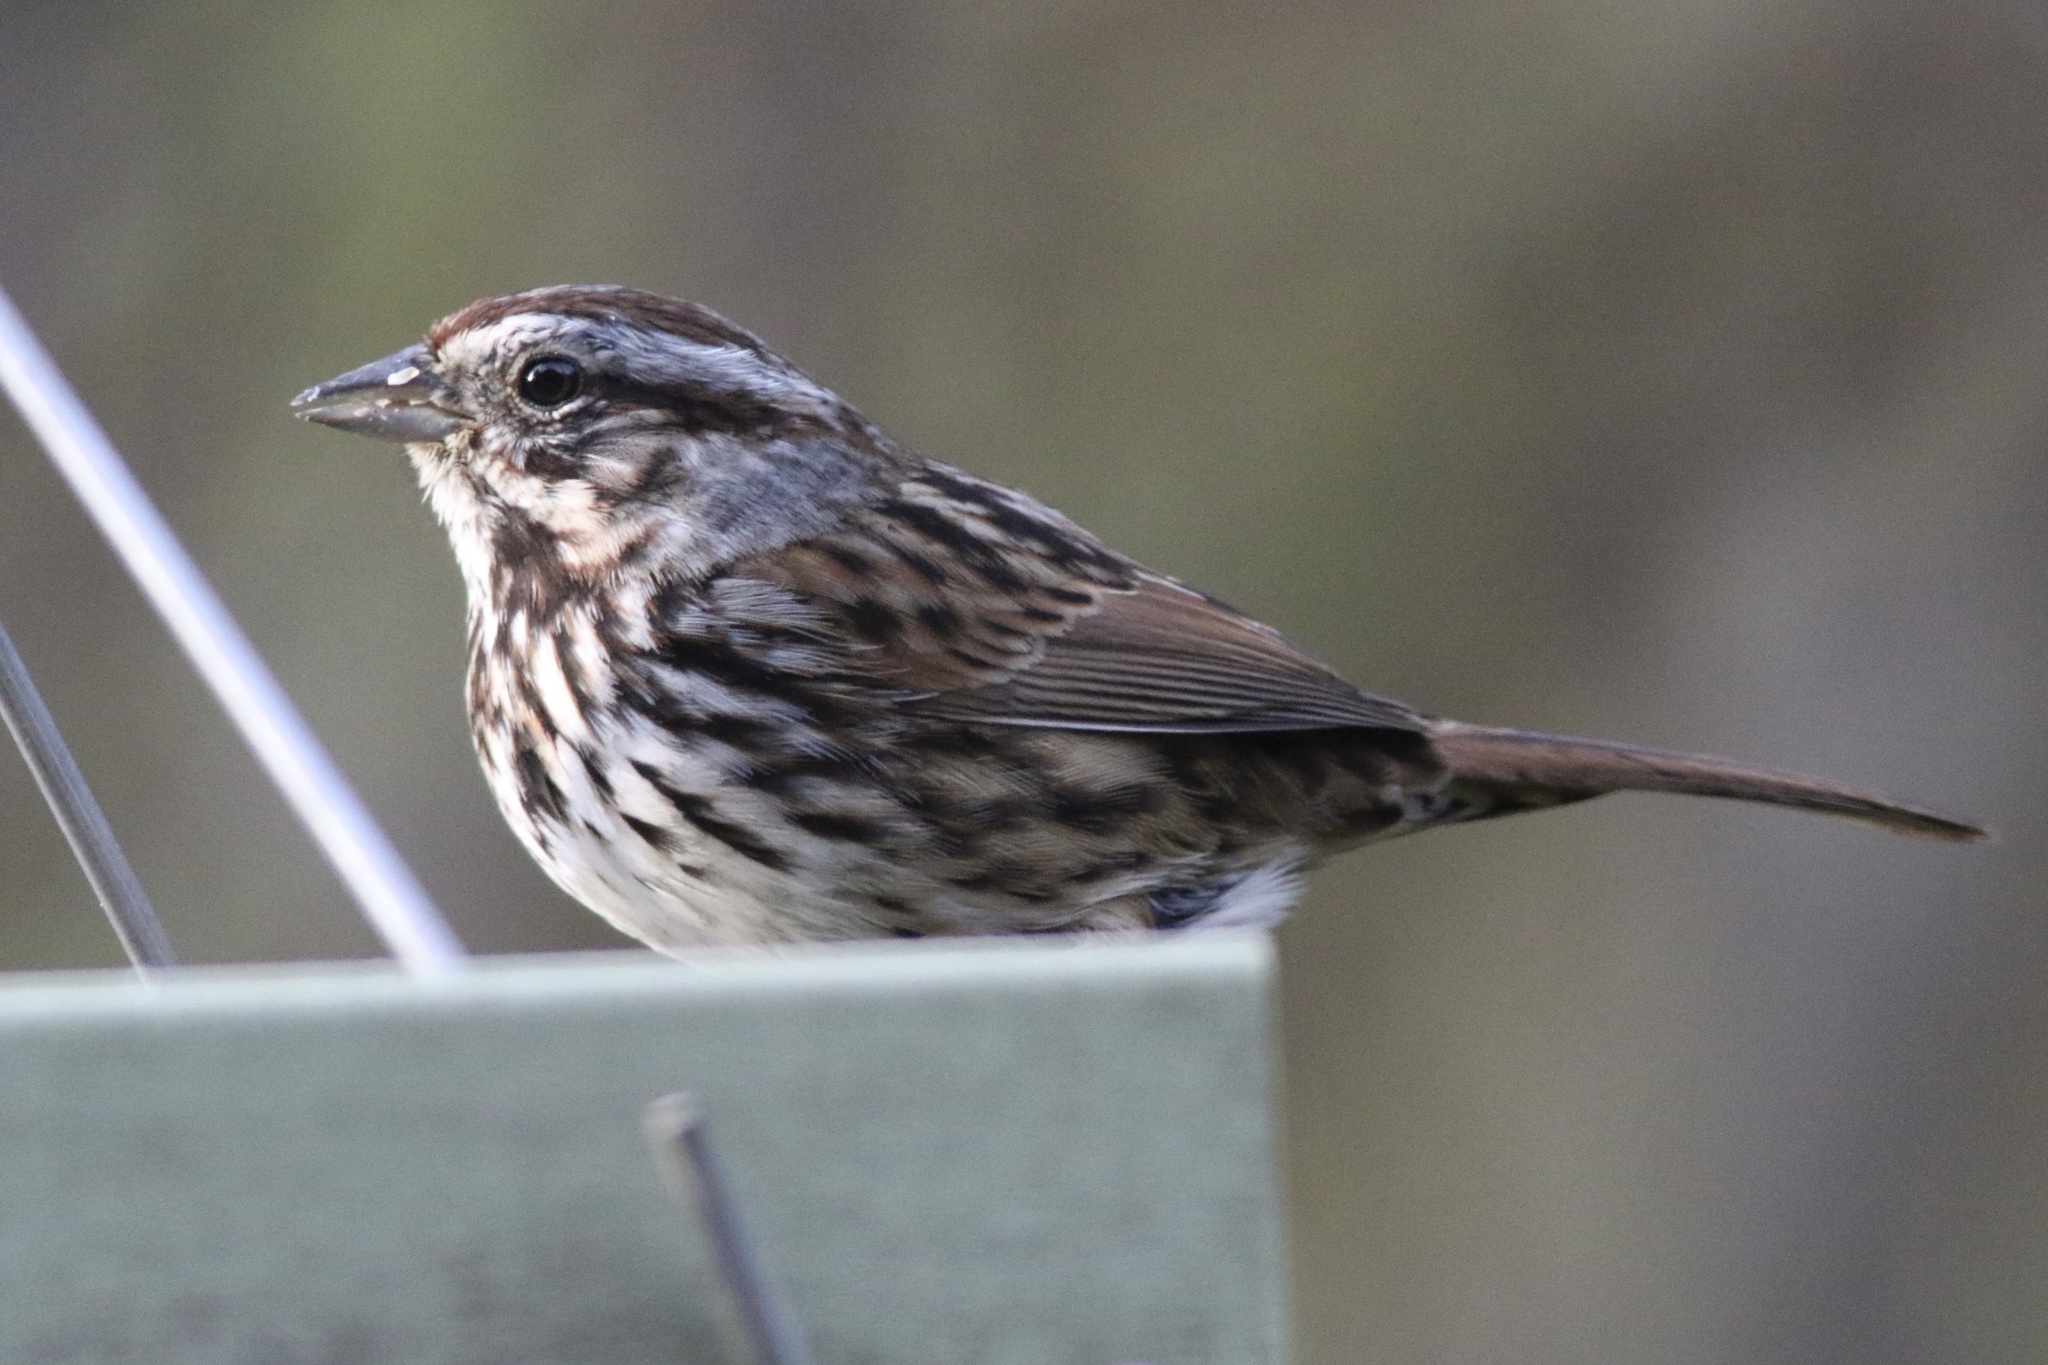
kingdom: Animalia
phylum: Chordata
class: Aves
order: Passeriformes
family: Passerellidae
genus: Melospiza
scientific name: Melospiza melodia
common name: Song sparrow
